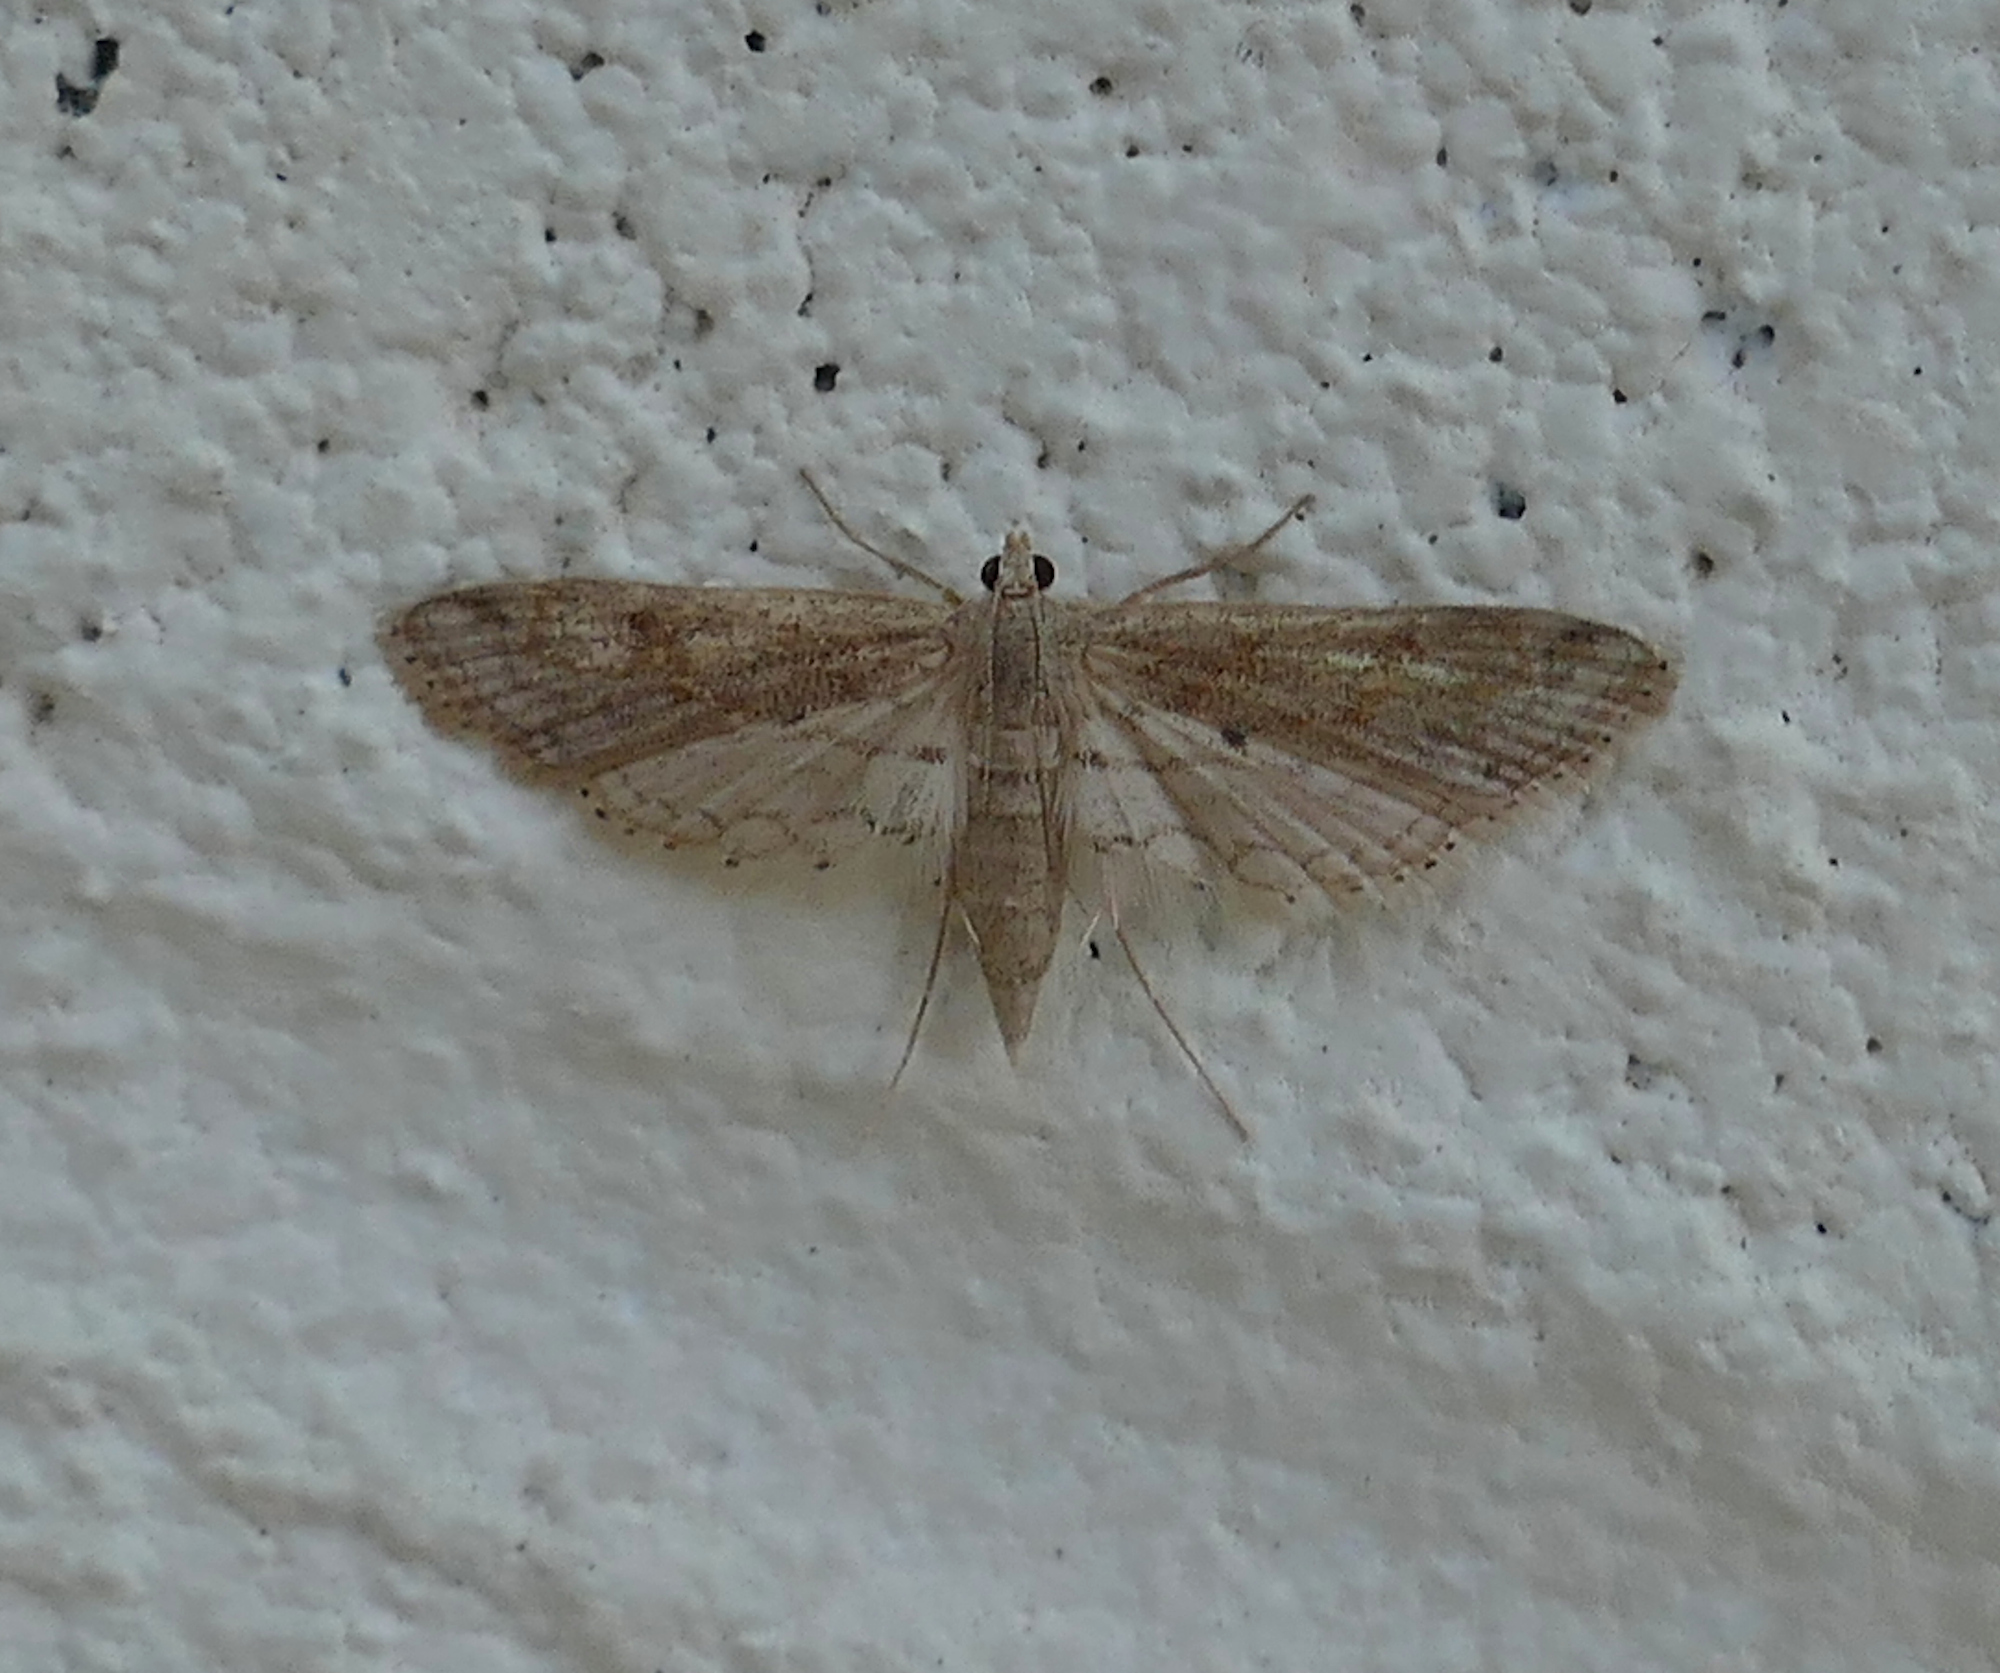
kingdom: Animalia
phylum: Arthropoda
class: Insecta
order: Lepidoptera
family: Crambidae
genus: Parapoynx
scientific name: Parapoynx allionealis
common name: Bladderwort casemaker
